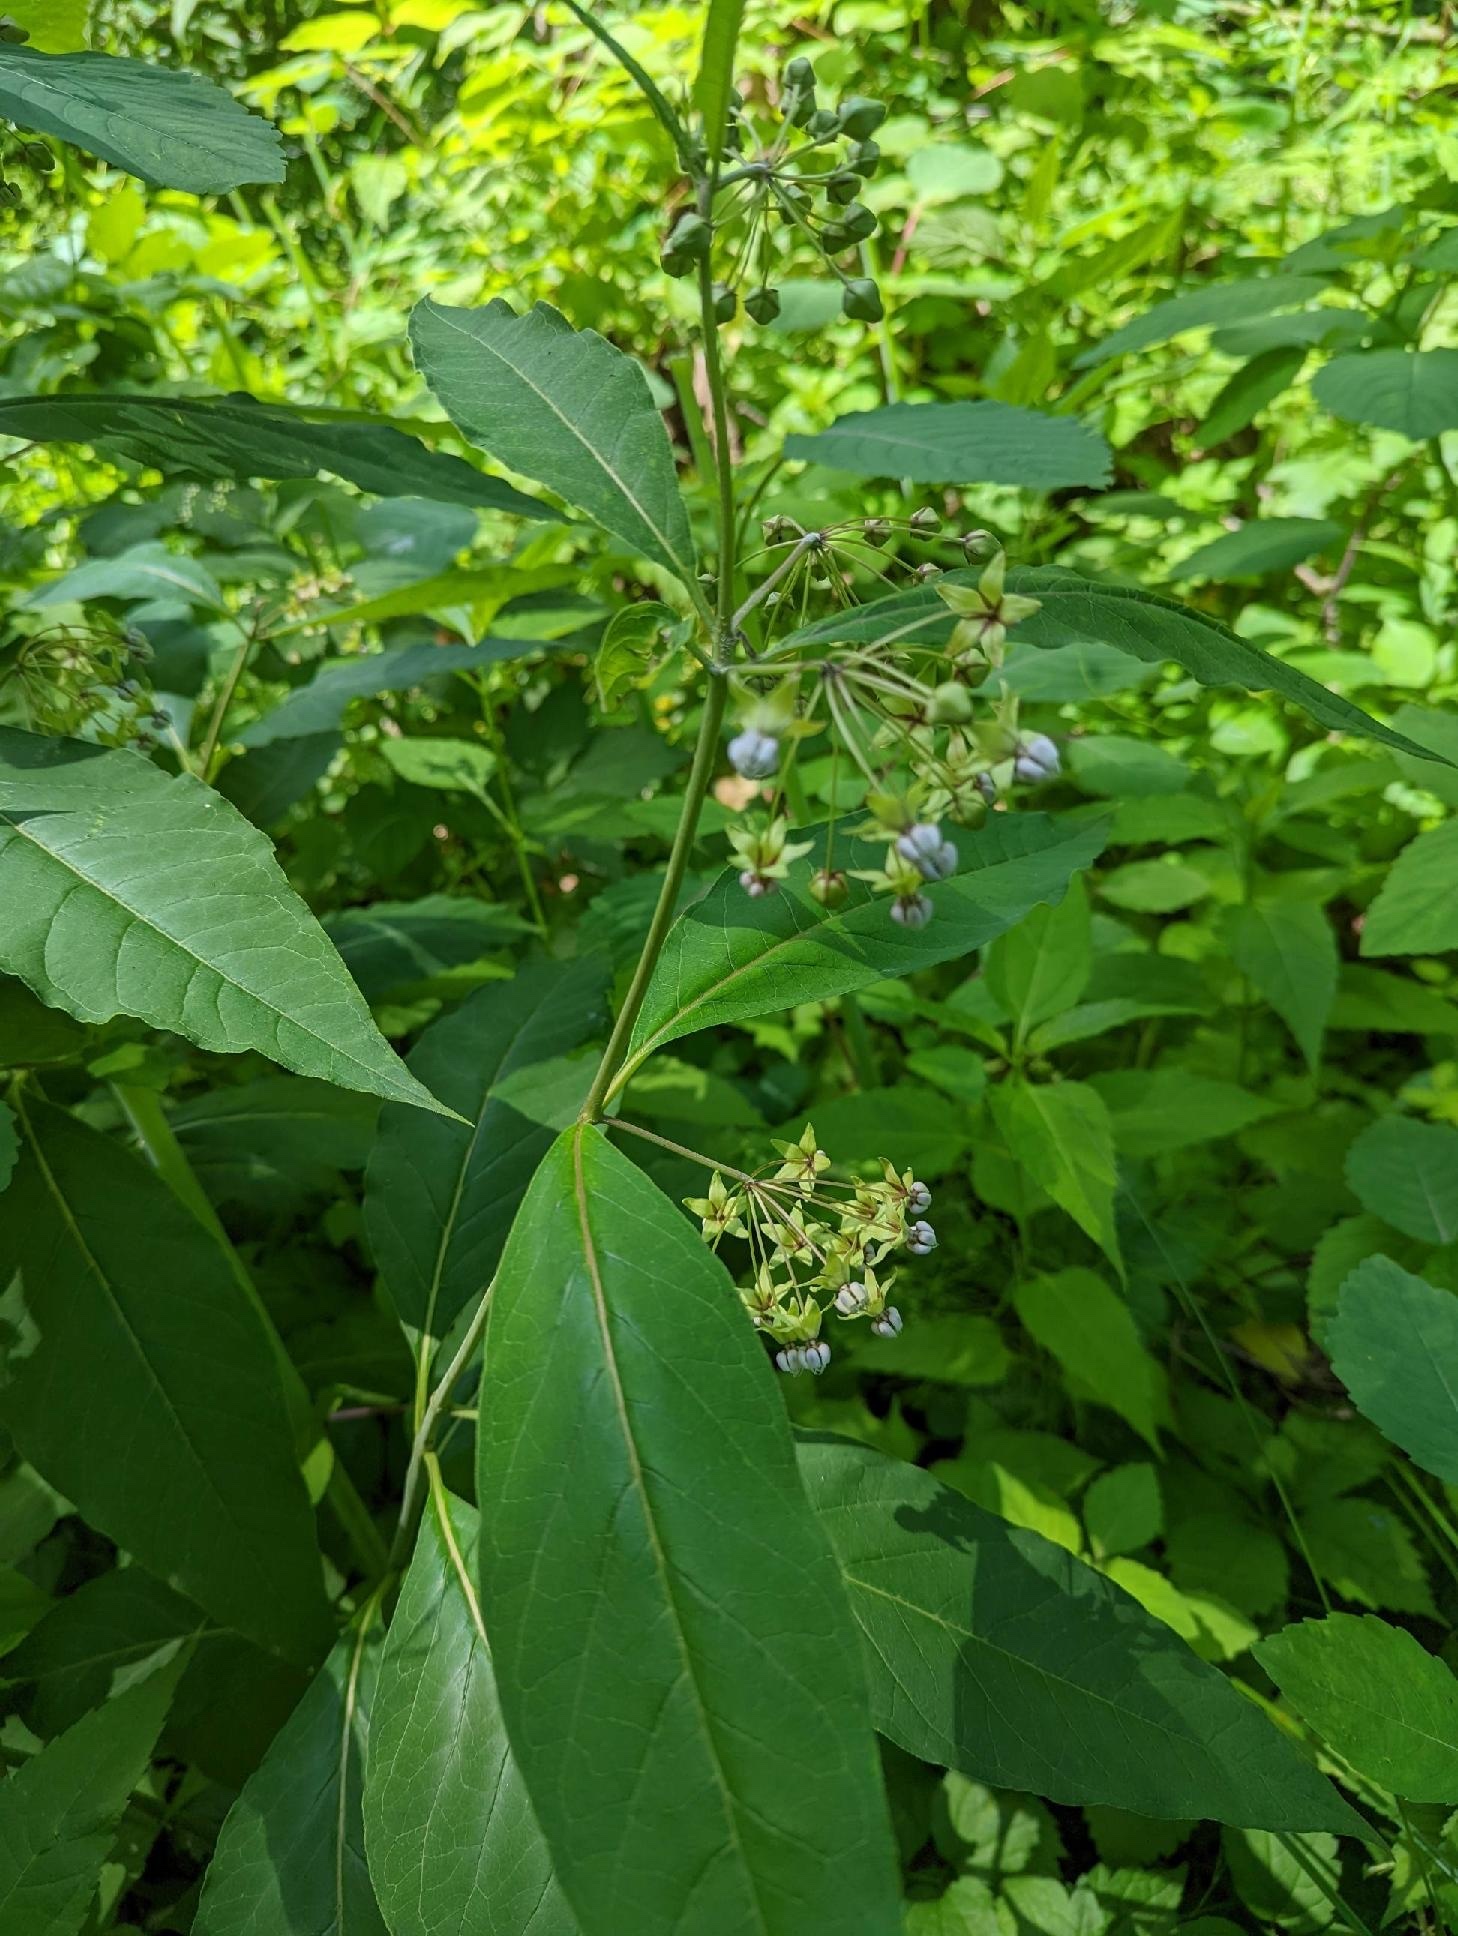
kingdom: Plantae
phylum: Tracheophyta
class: Magnoliopsida
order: Gentianales
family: Apocynaceae
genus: Asclepias
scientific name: Asclepias exaltata
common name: Poke milkweed
